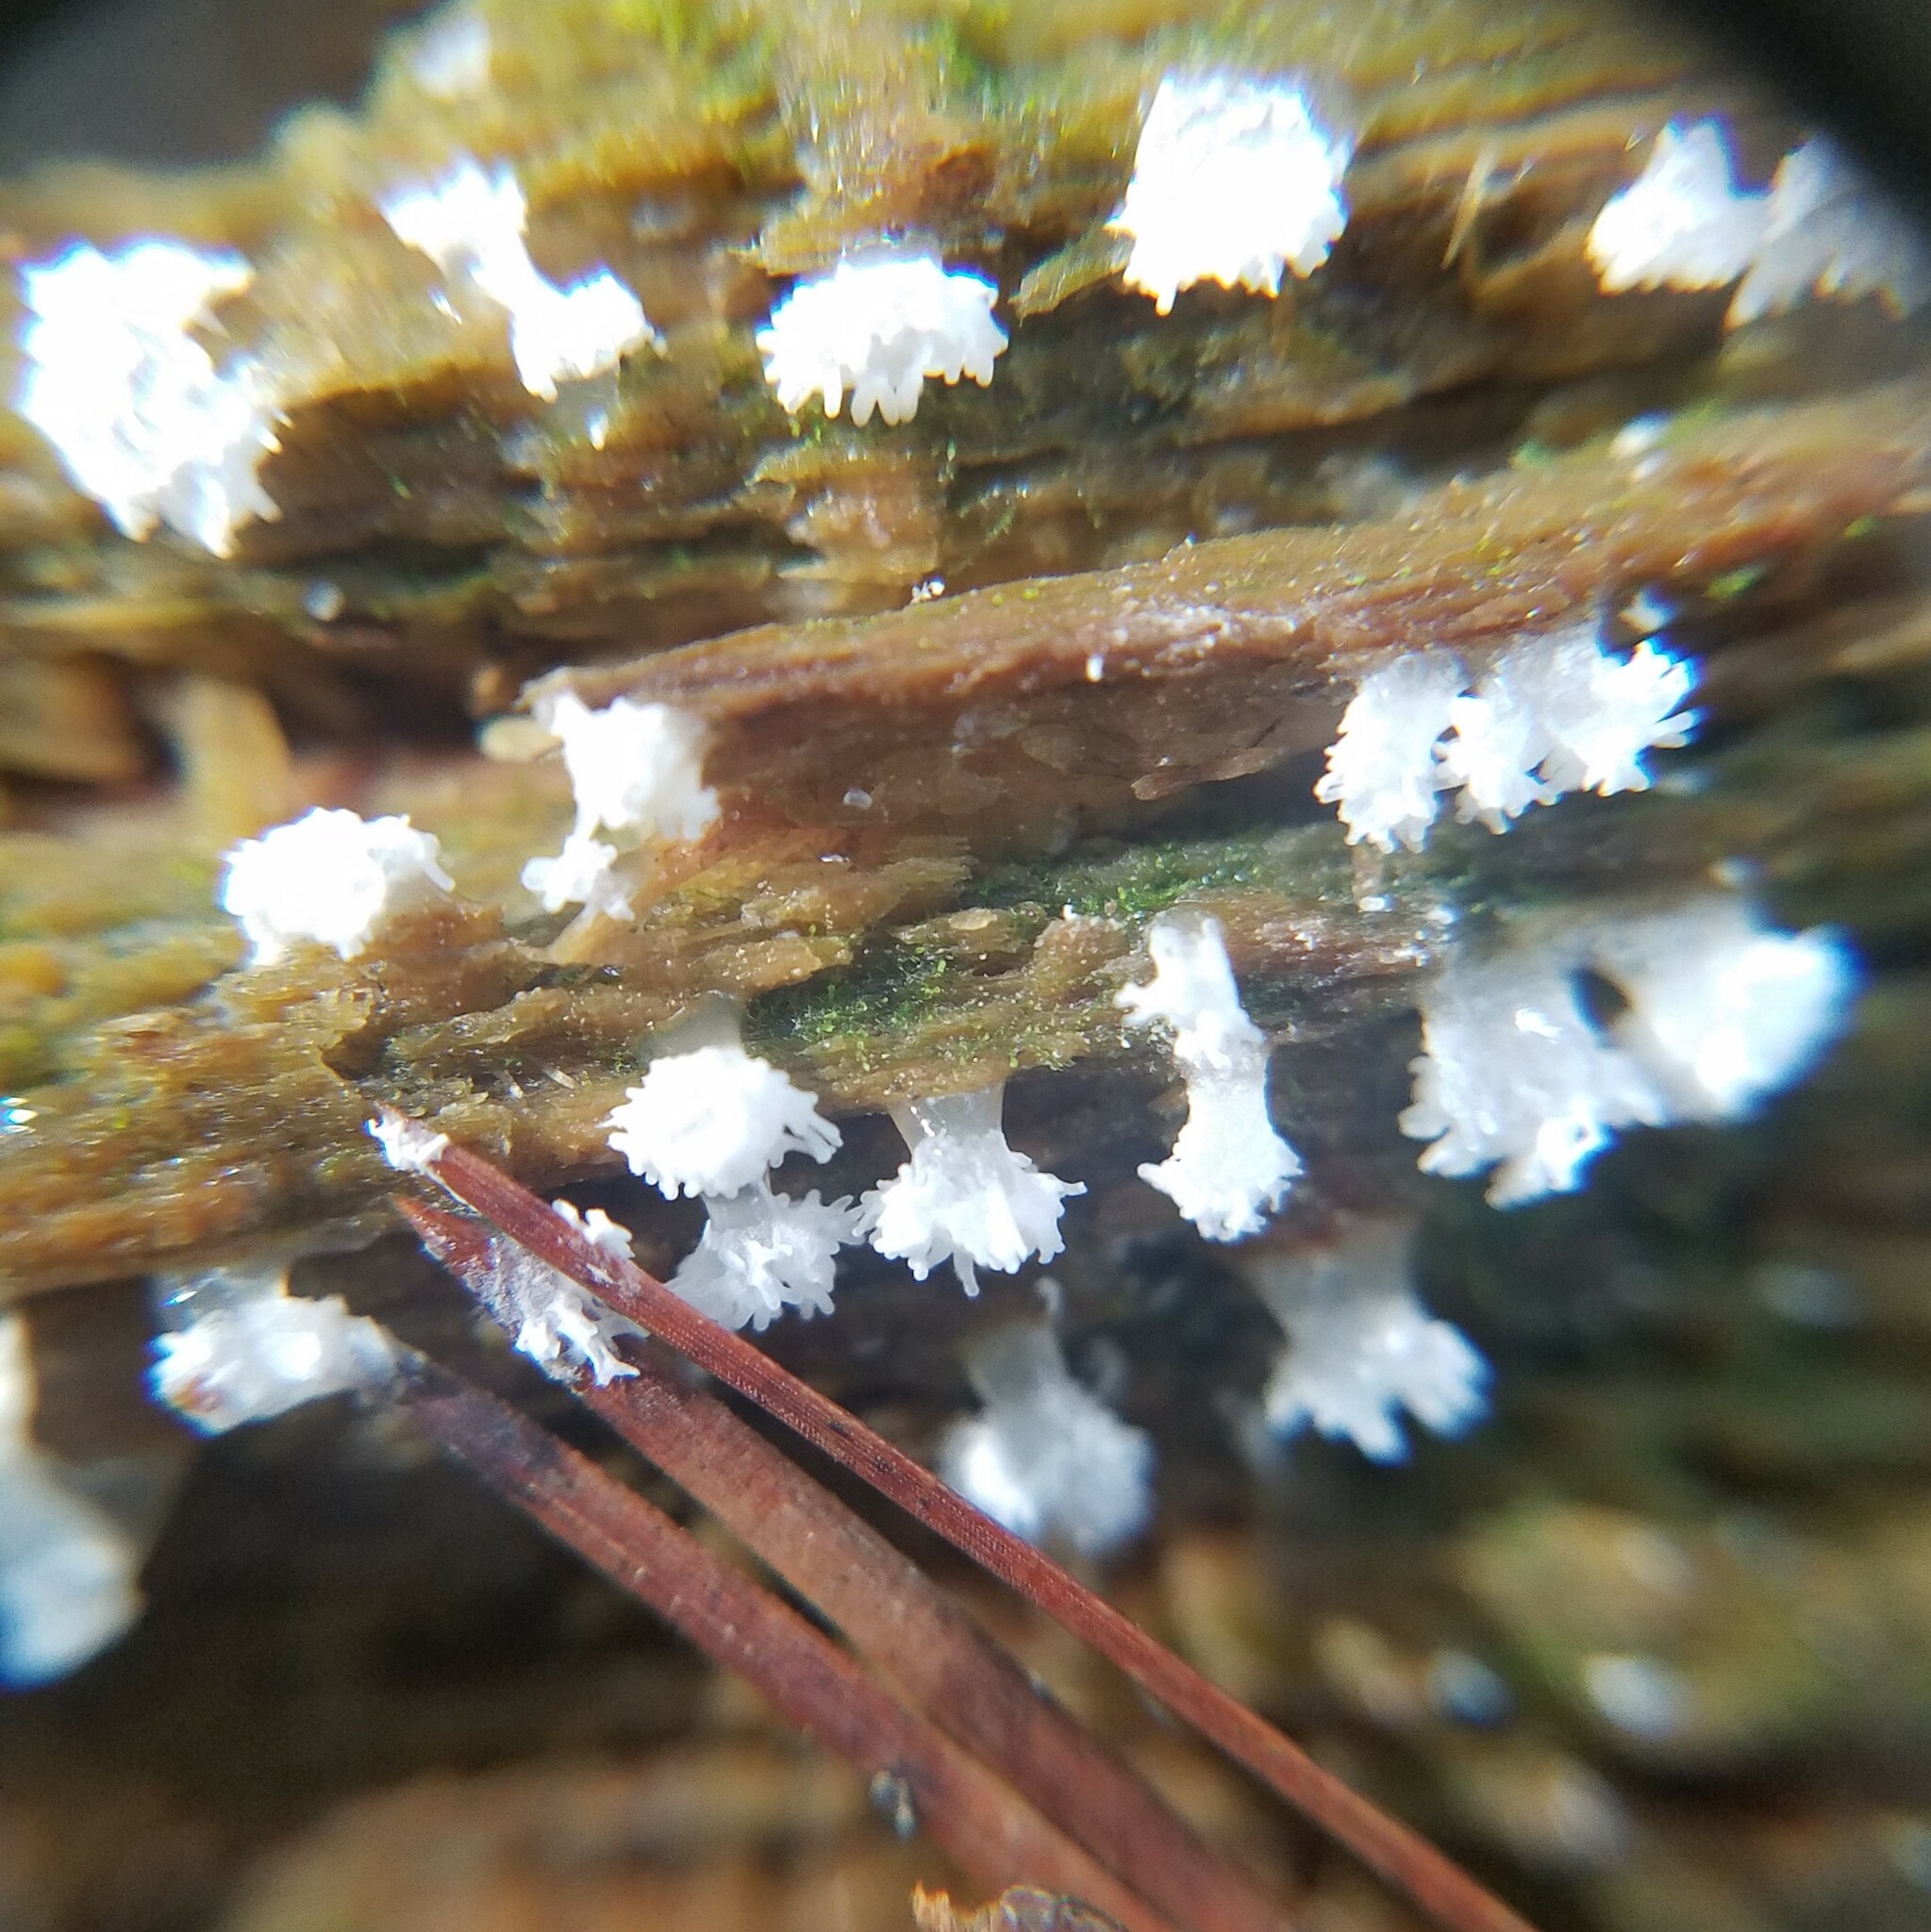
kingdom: Protozoa
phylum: Mycetozoa
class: Protosteliomycetes
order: Ceratiomyxales
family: Ceratiomyxaceae
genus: Ceratiomyxa
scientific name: Ceratiomyxa fruticulosa
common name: Honeycomb coral slime mold
